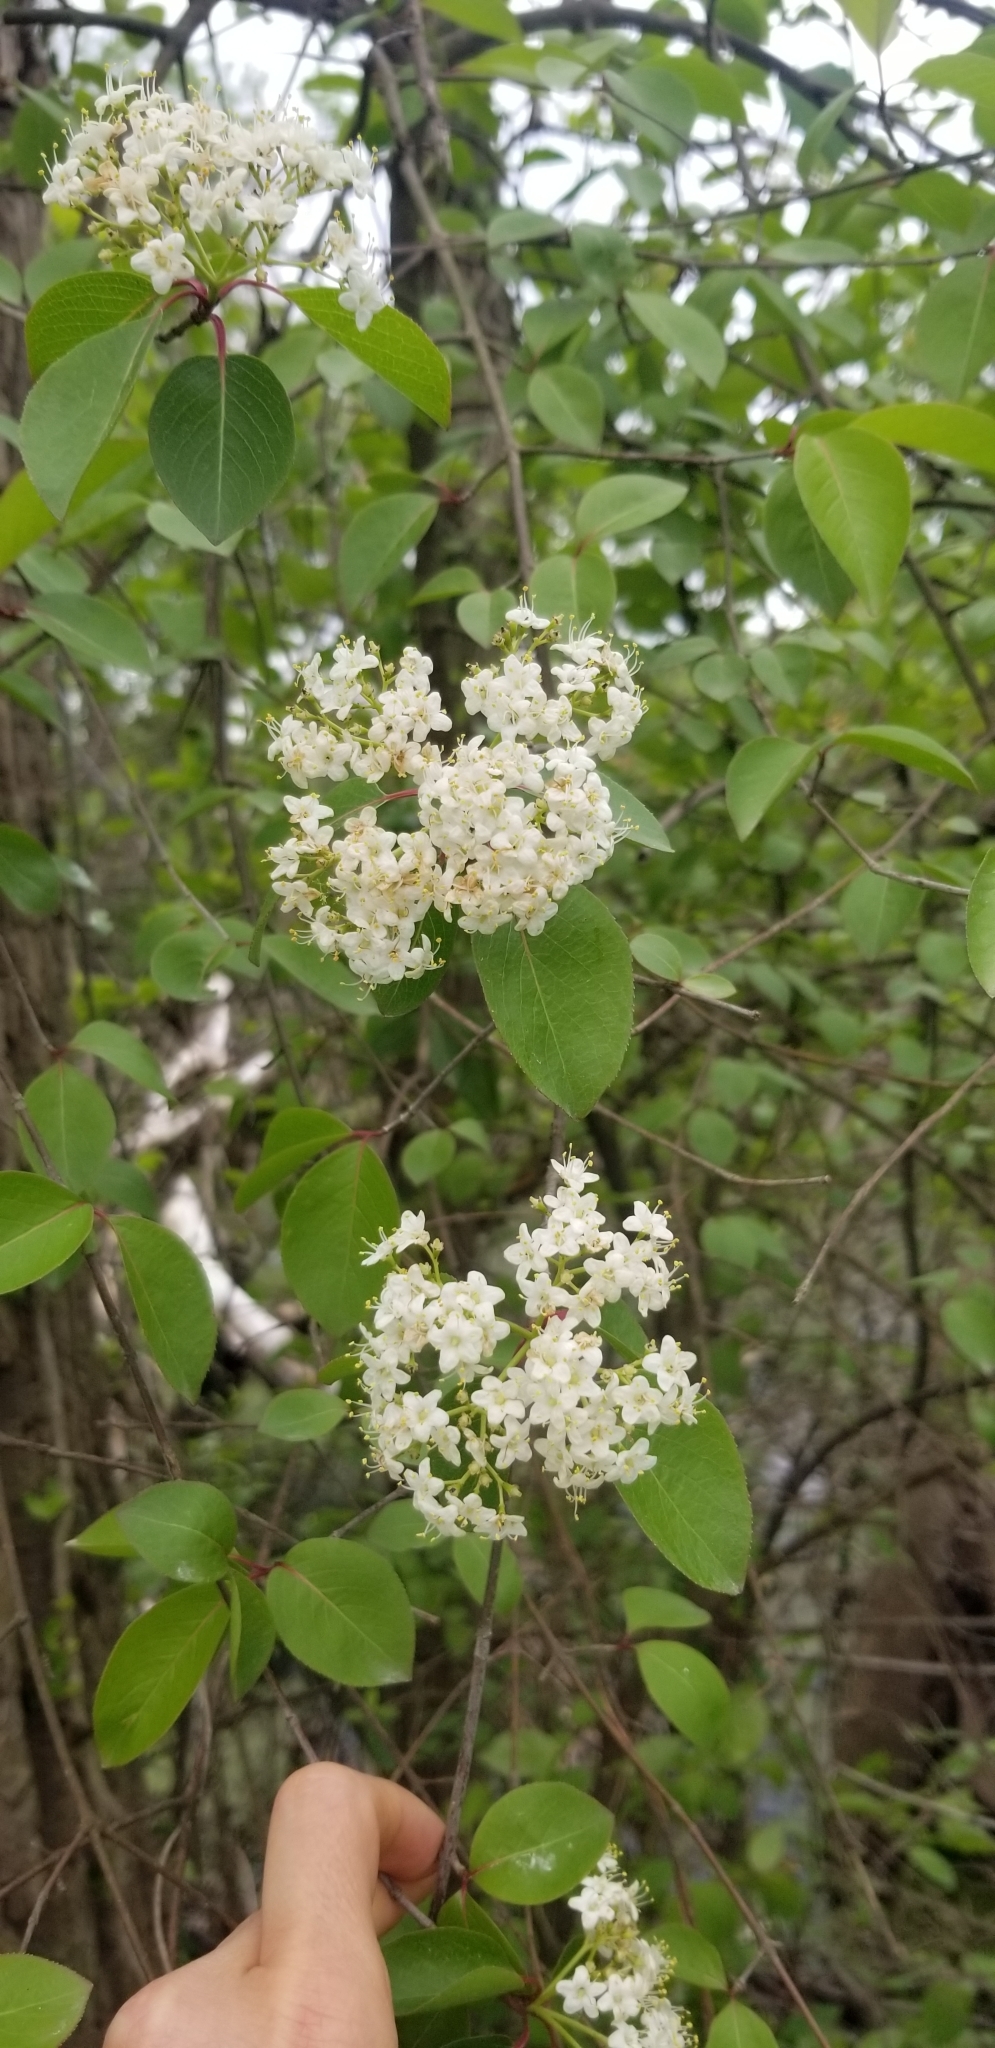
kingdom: Plantae
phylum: Tracheophyta
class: Magnoliopsida
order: Dipsacales
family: Viburnaceae
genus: Viburnum
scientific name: Viburnum prunifolium
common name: Black haw
